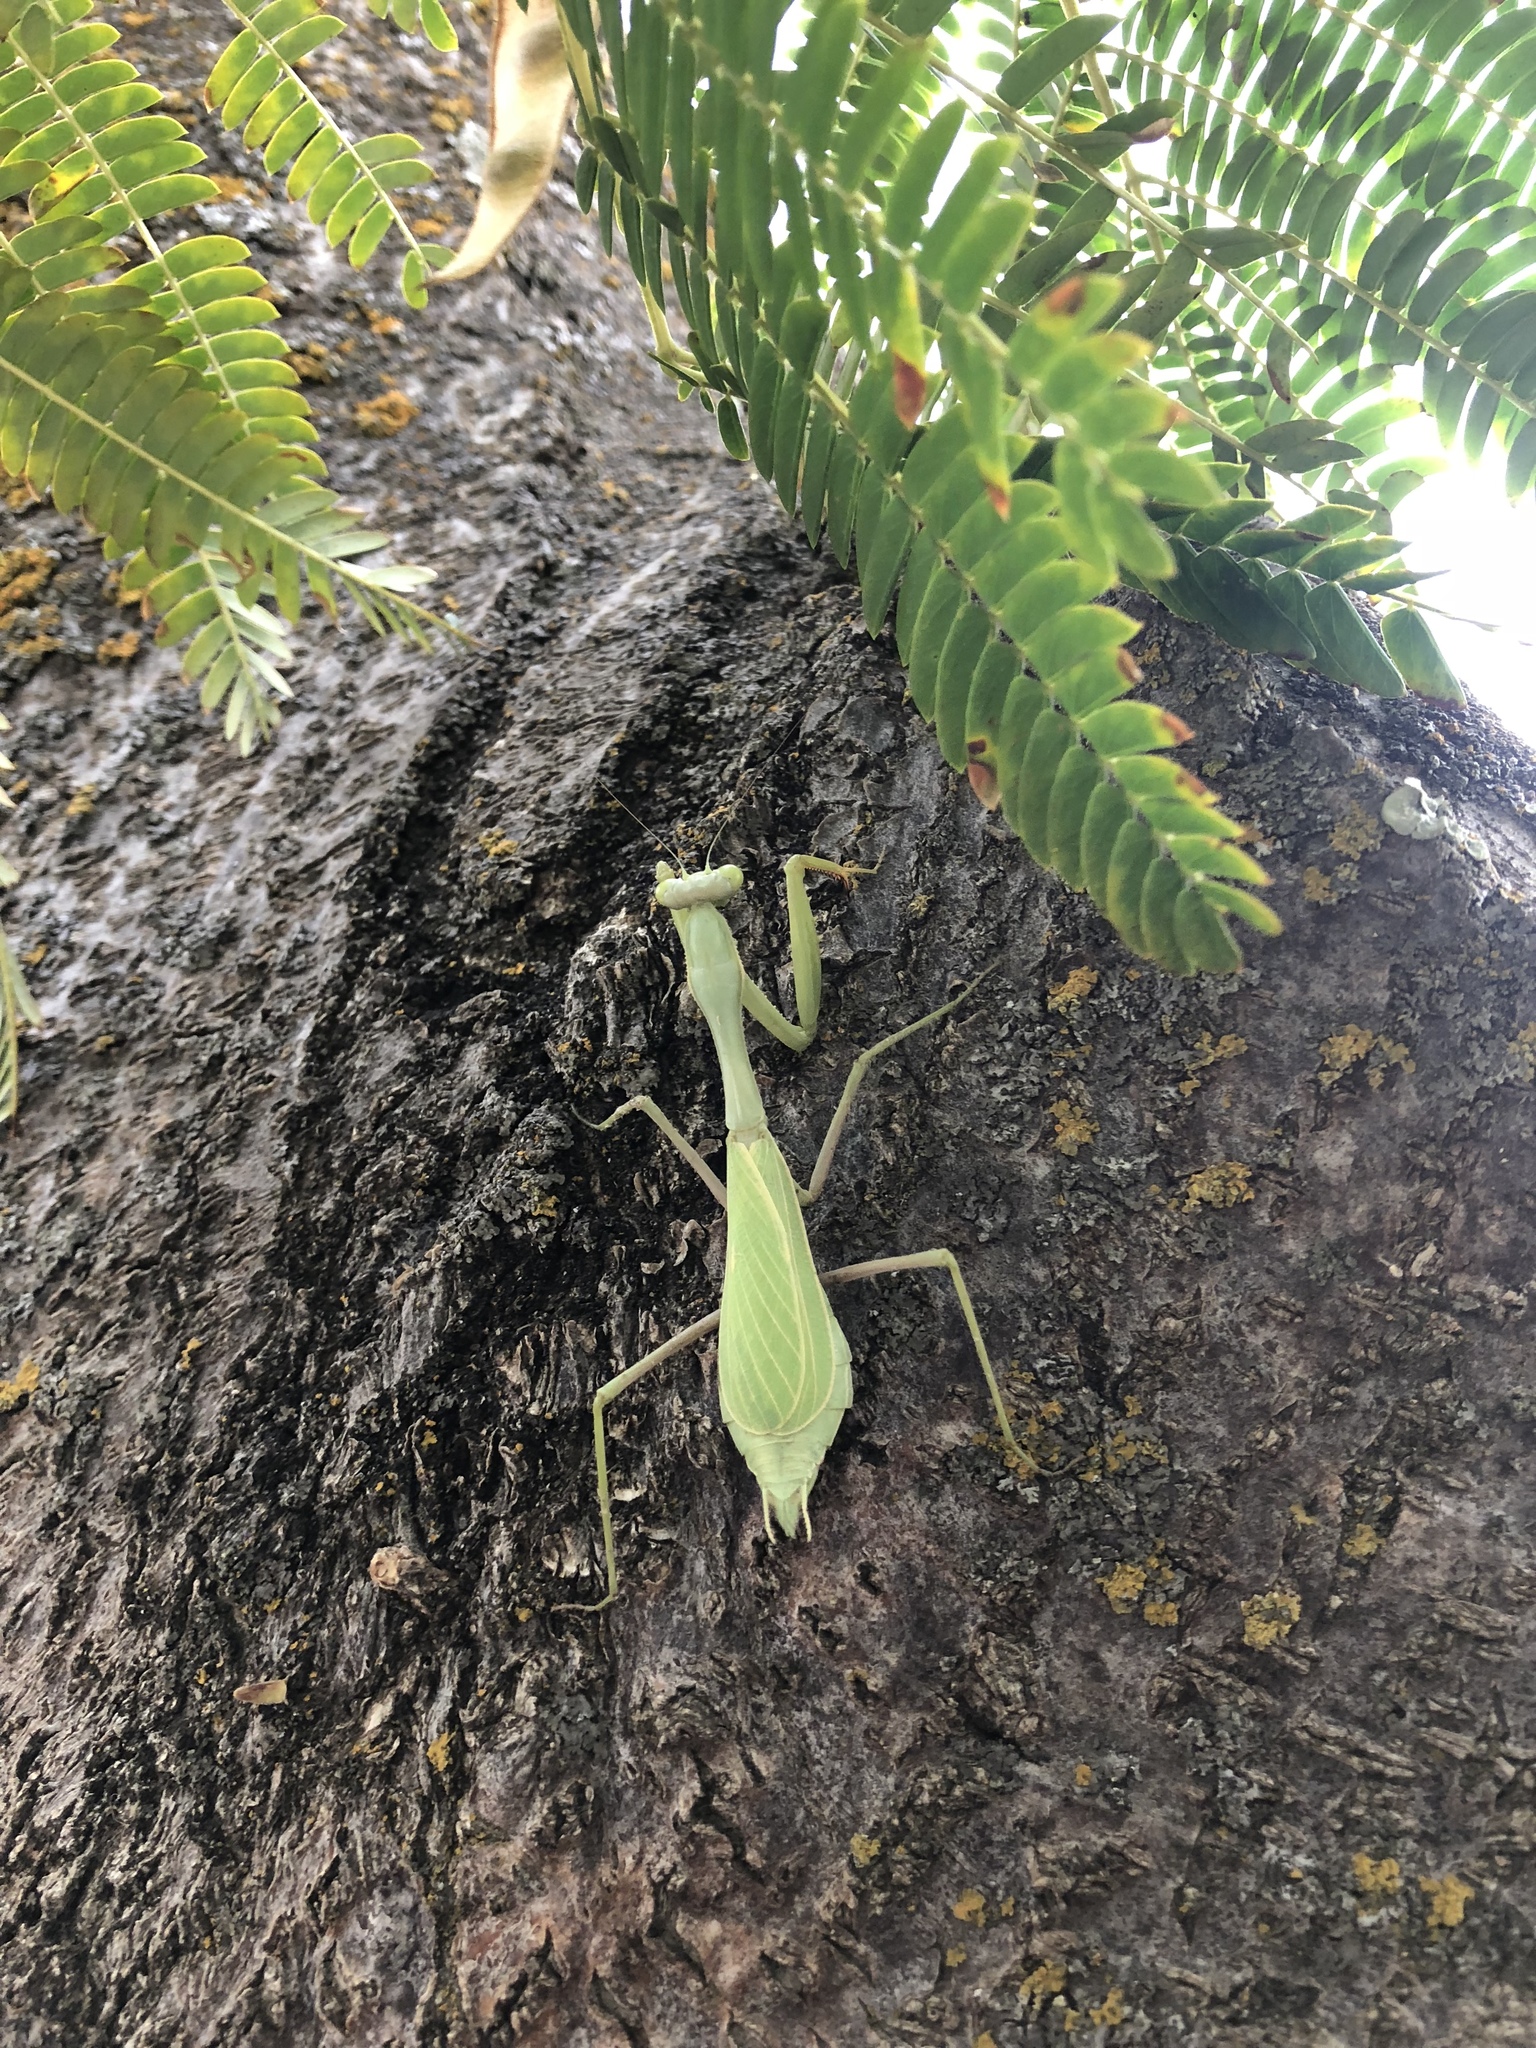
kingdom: Animalia
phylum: Arthropoda
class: Insecta
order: Mantodea
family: Mantidae
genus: Stagmomantis
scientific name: Stagmomantis limbata
